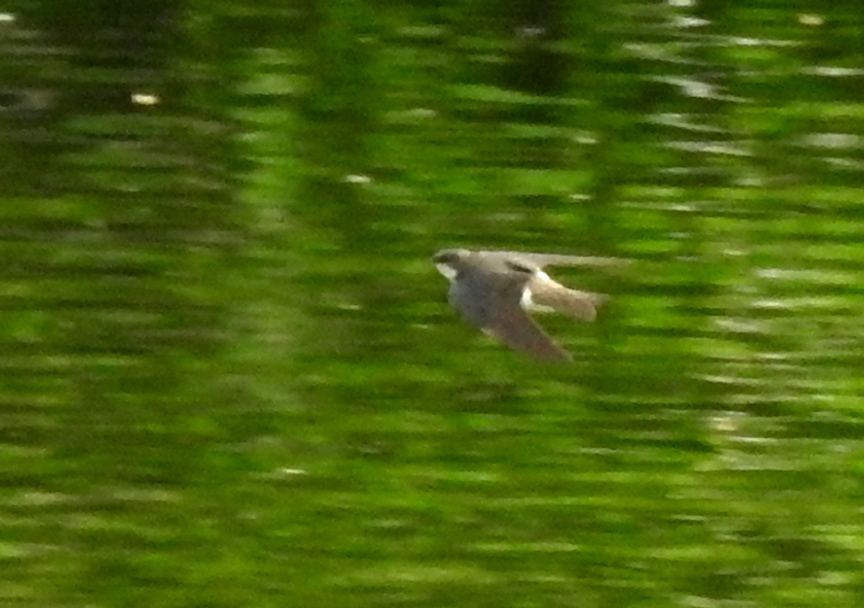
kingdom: Animalia
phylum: Chordata
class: Aves
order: Passeriformes
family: Hirundinidae
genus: Tachycineta
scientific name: Tachycineta bicolor
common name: Tree swallow
